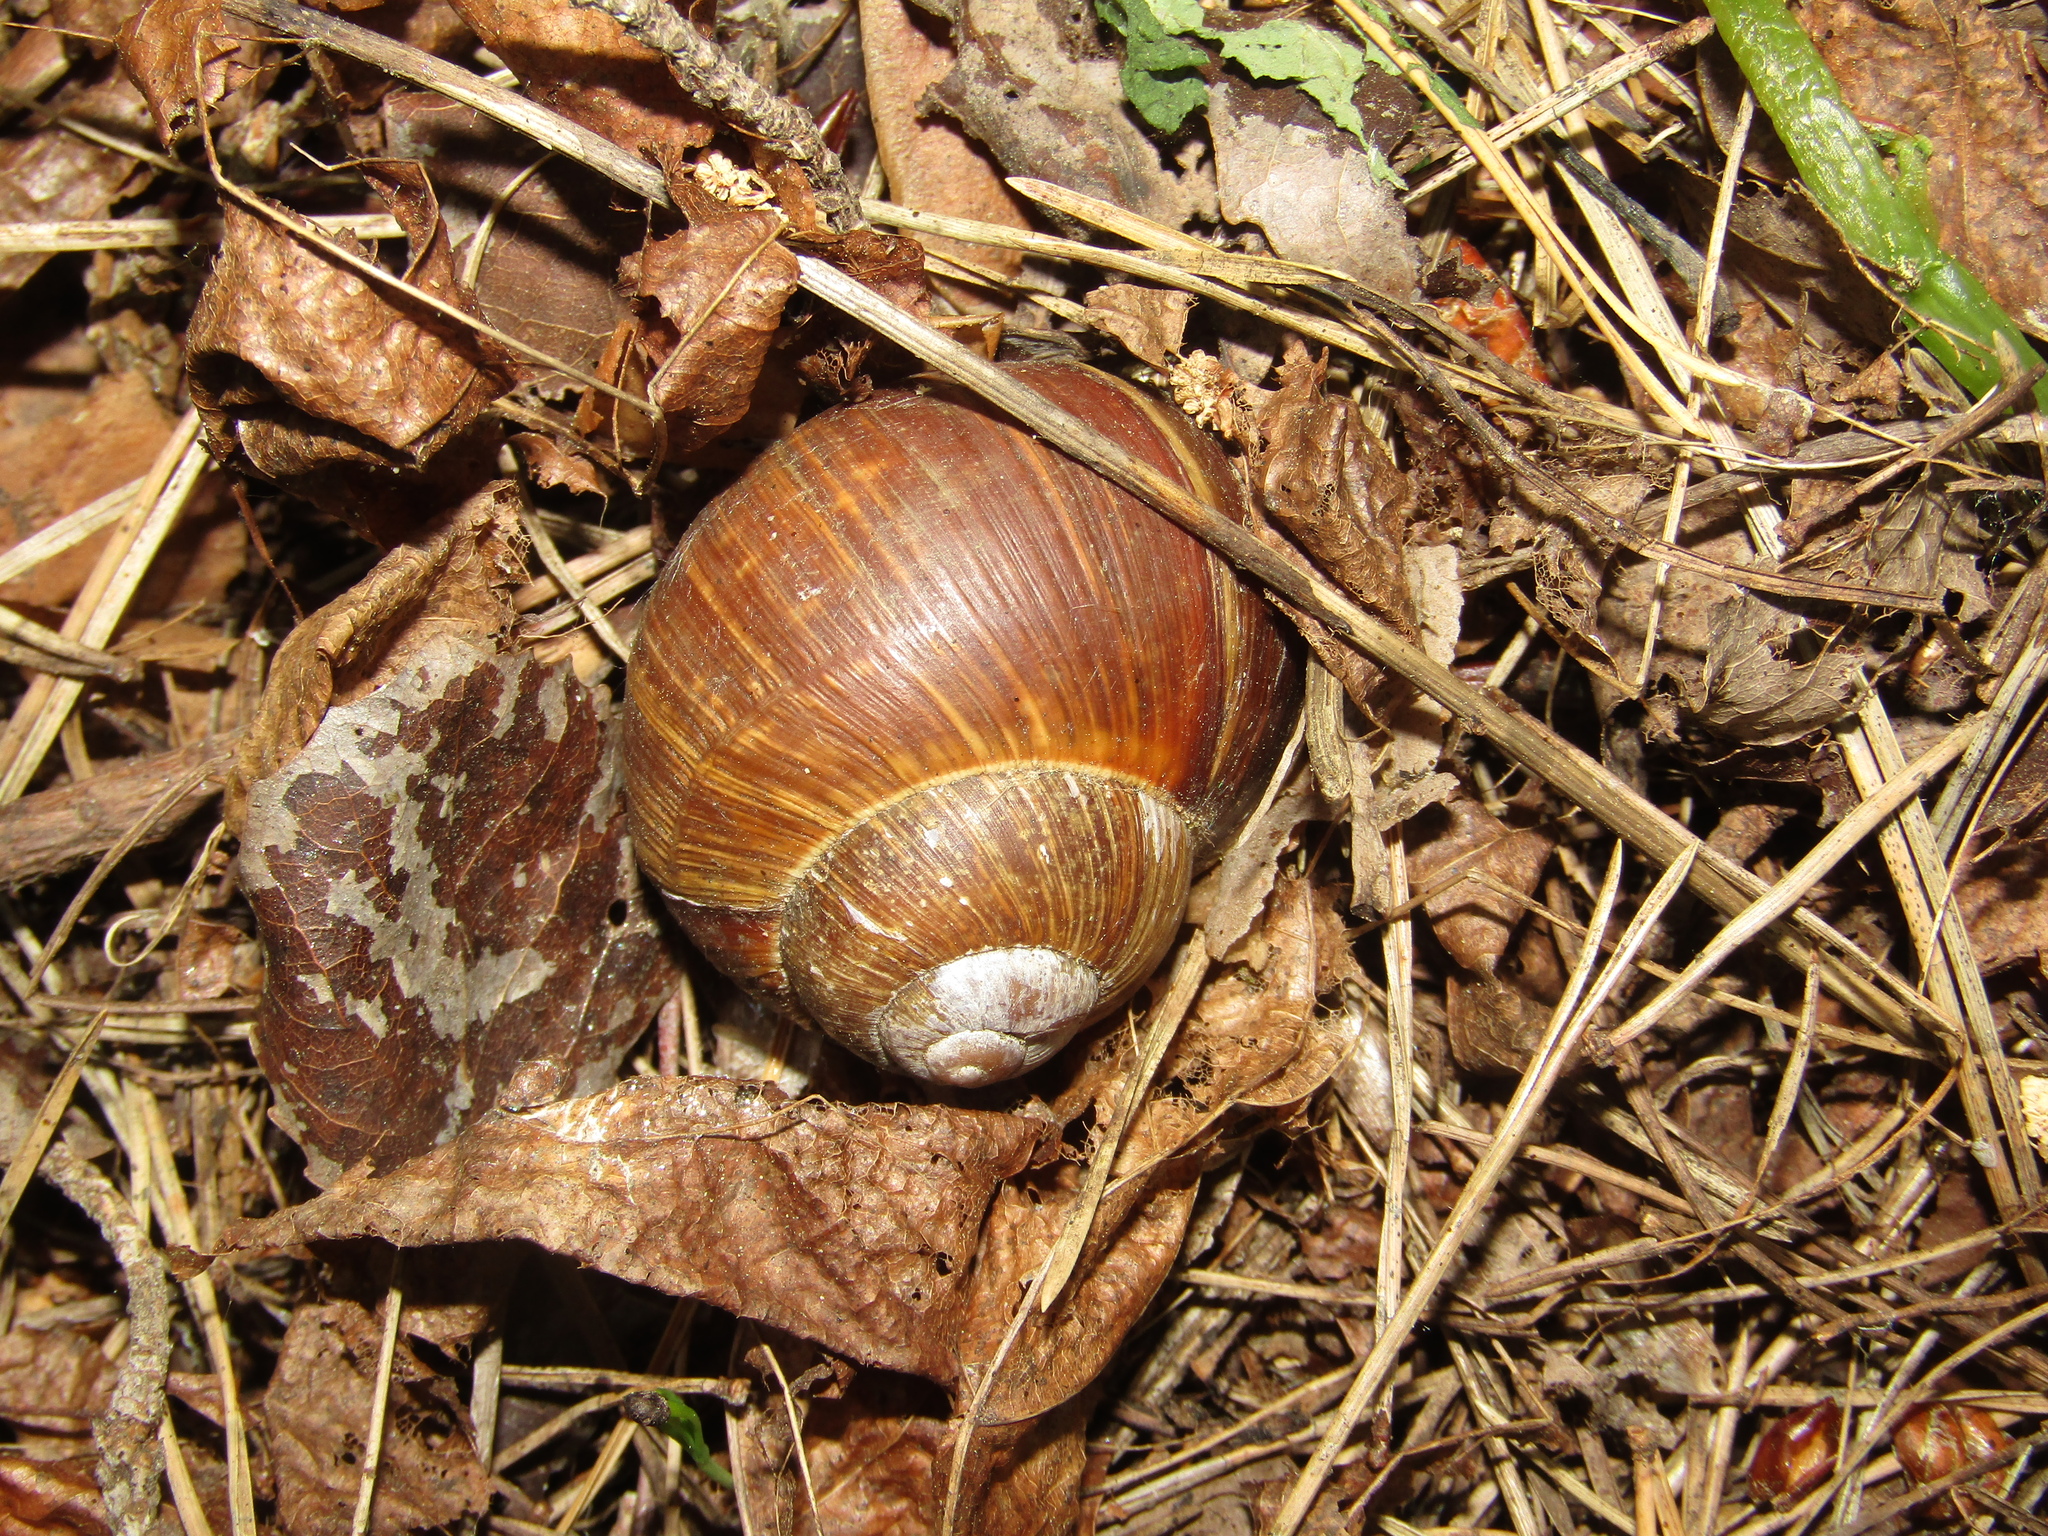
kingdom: Animalia
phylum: Mollusca
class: Gastropoda
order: Stylommatophora
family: Helicidae
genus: Helix
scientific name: Helix pomatia
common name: Roman snail
